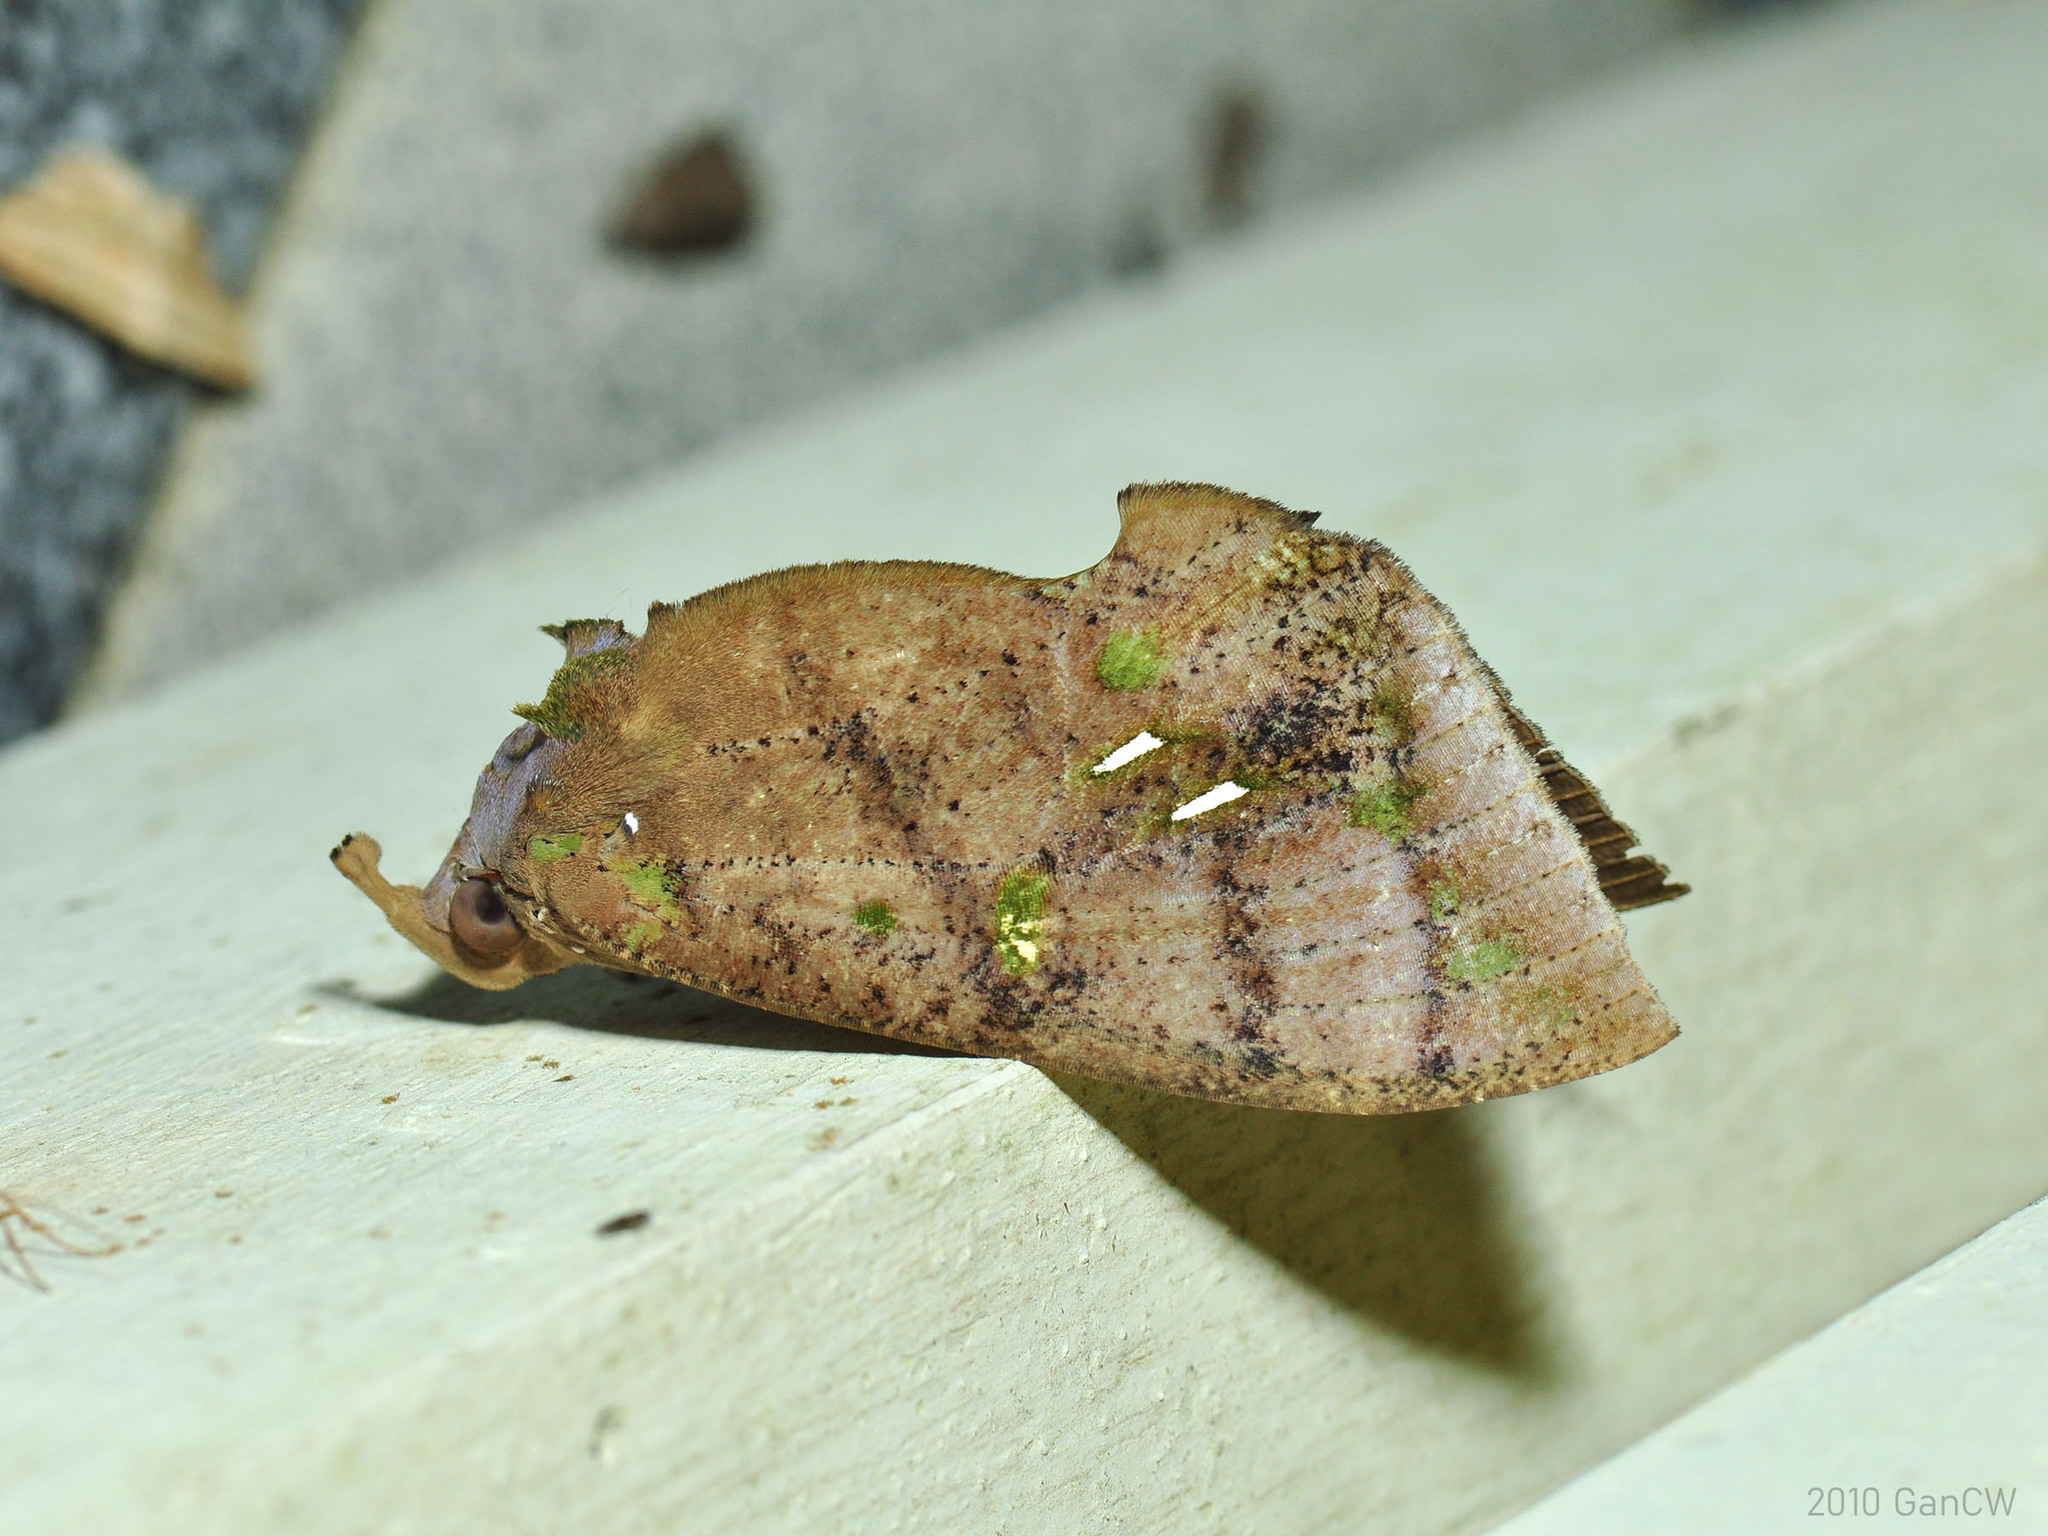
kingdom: Animalia
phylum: Arthropoda
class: Insecta
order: Lepidoptera
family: Erebidae
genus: Eudocima
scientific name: Eudocima discrepans
